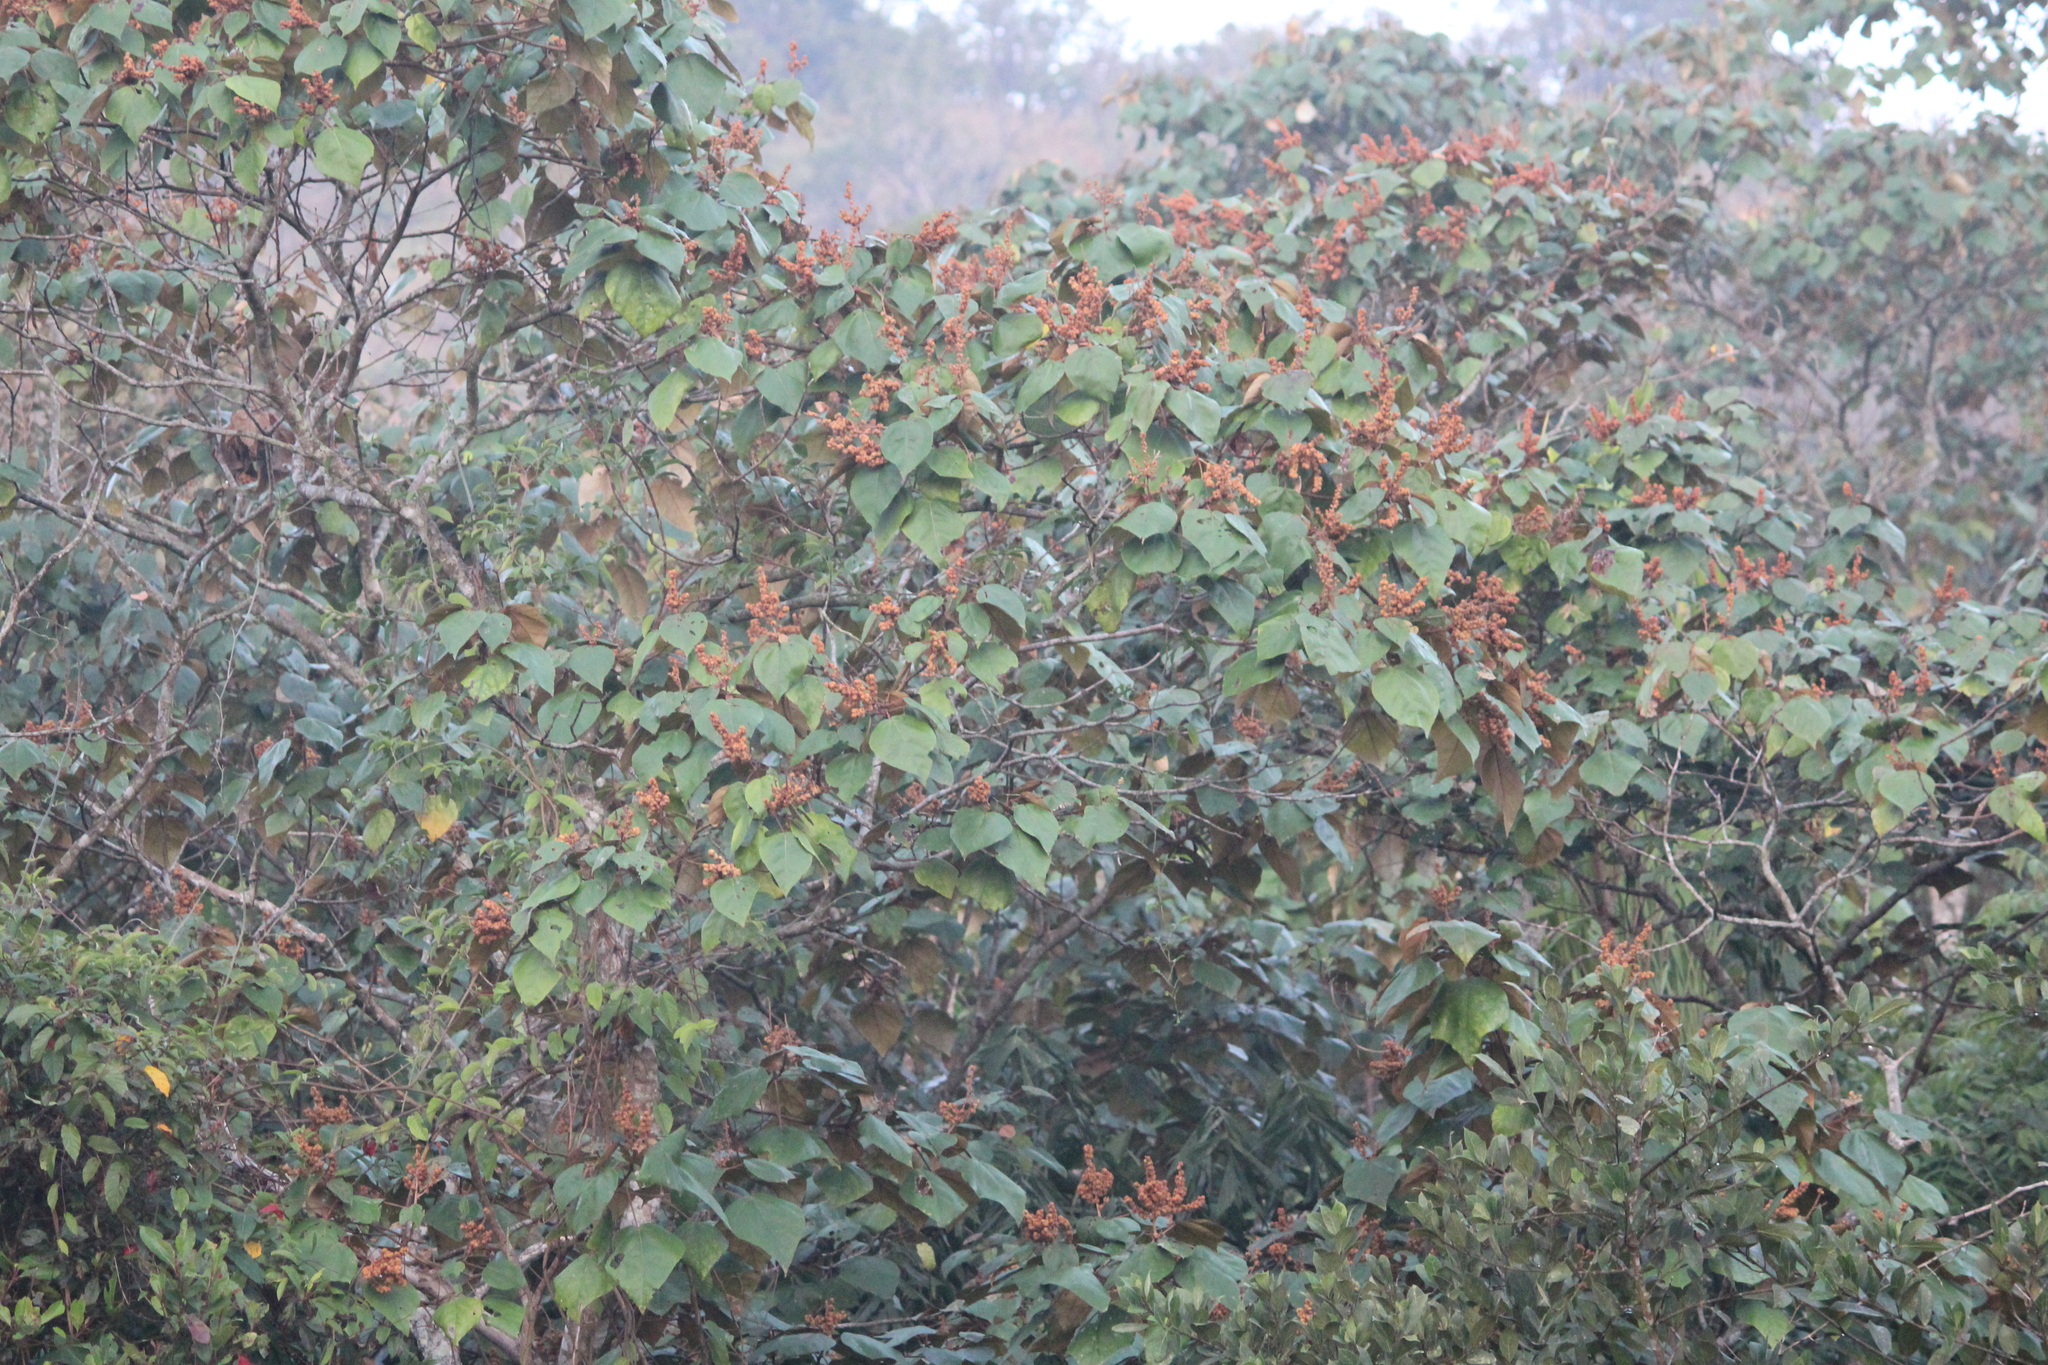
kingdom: Plantae
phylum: Tracheophyta
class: Magnoliopsida
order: Malpighiales
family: Euphorbiaceae
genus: Mallotus
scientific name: Mallotus tetracoccus
